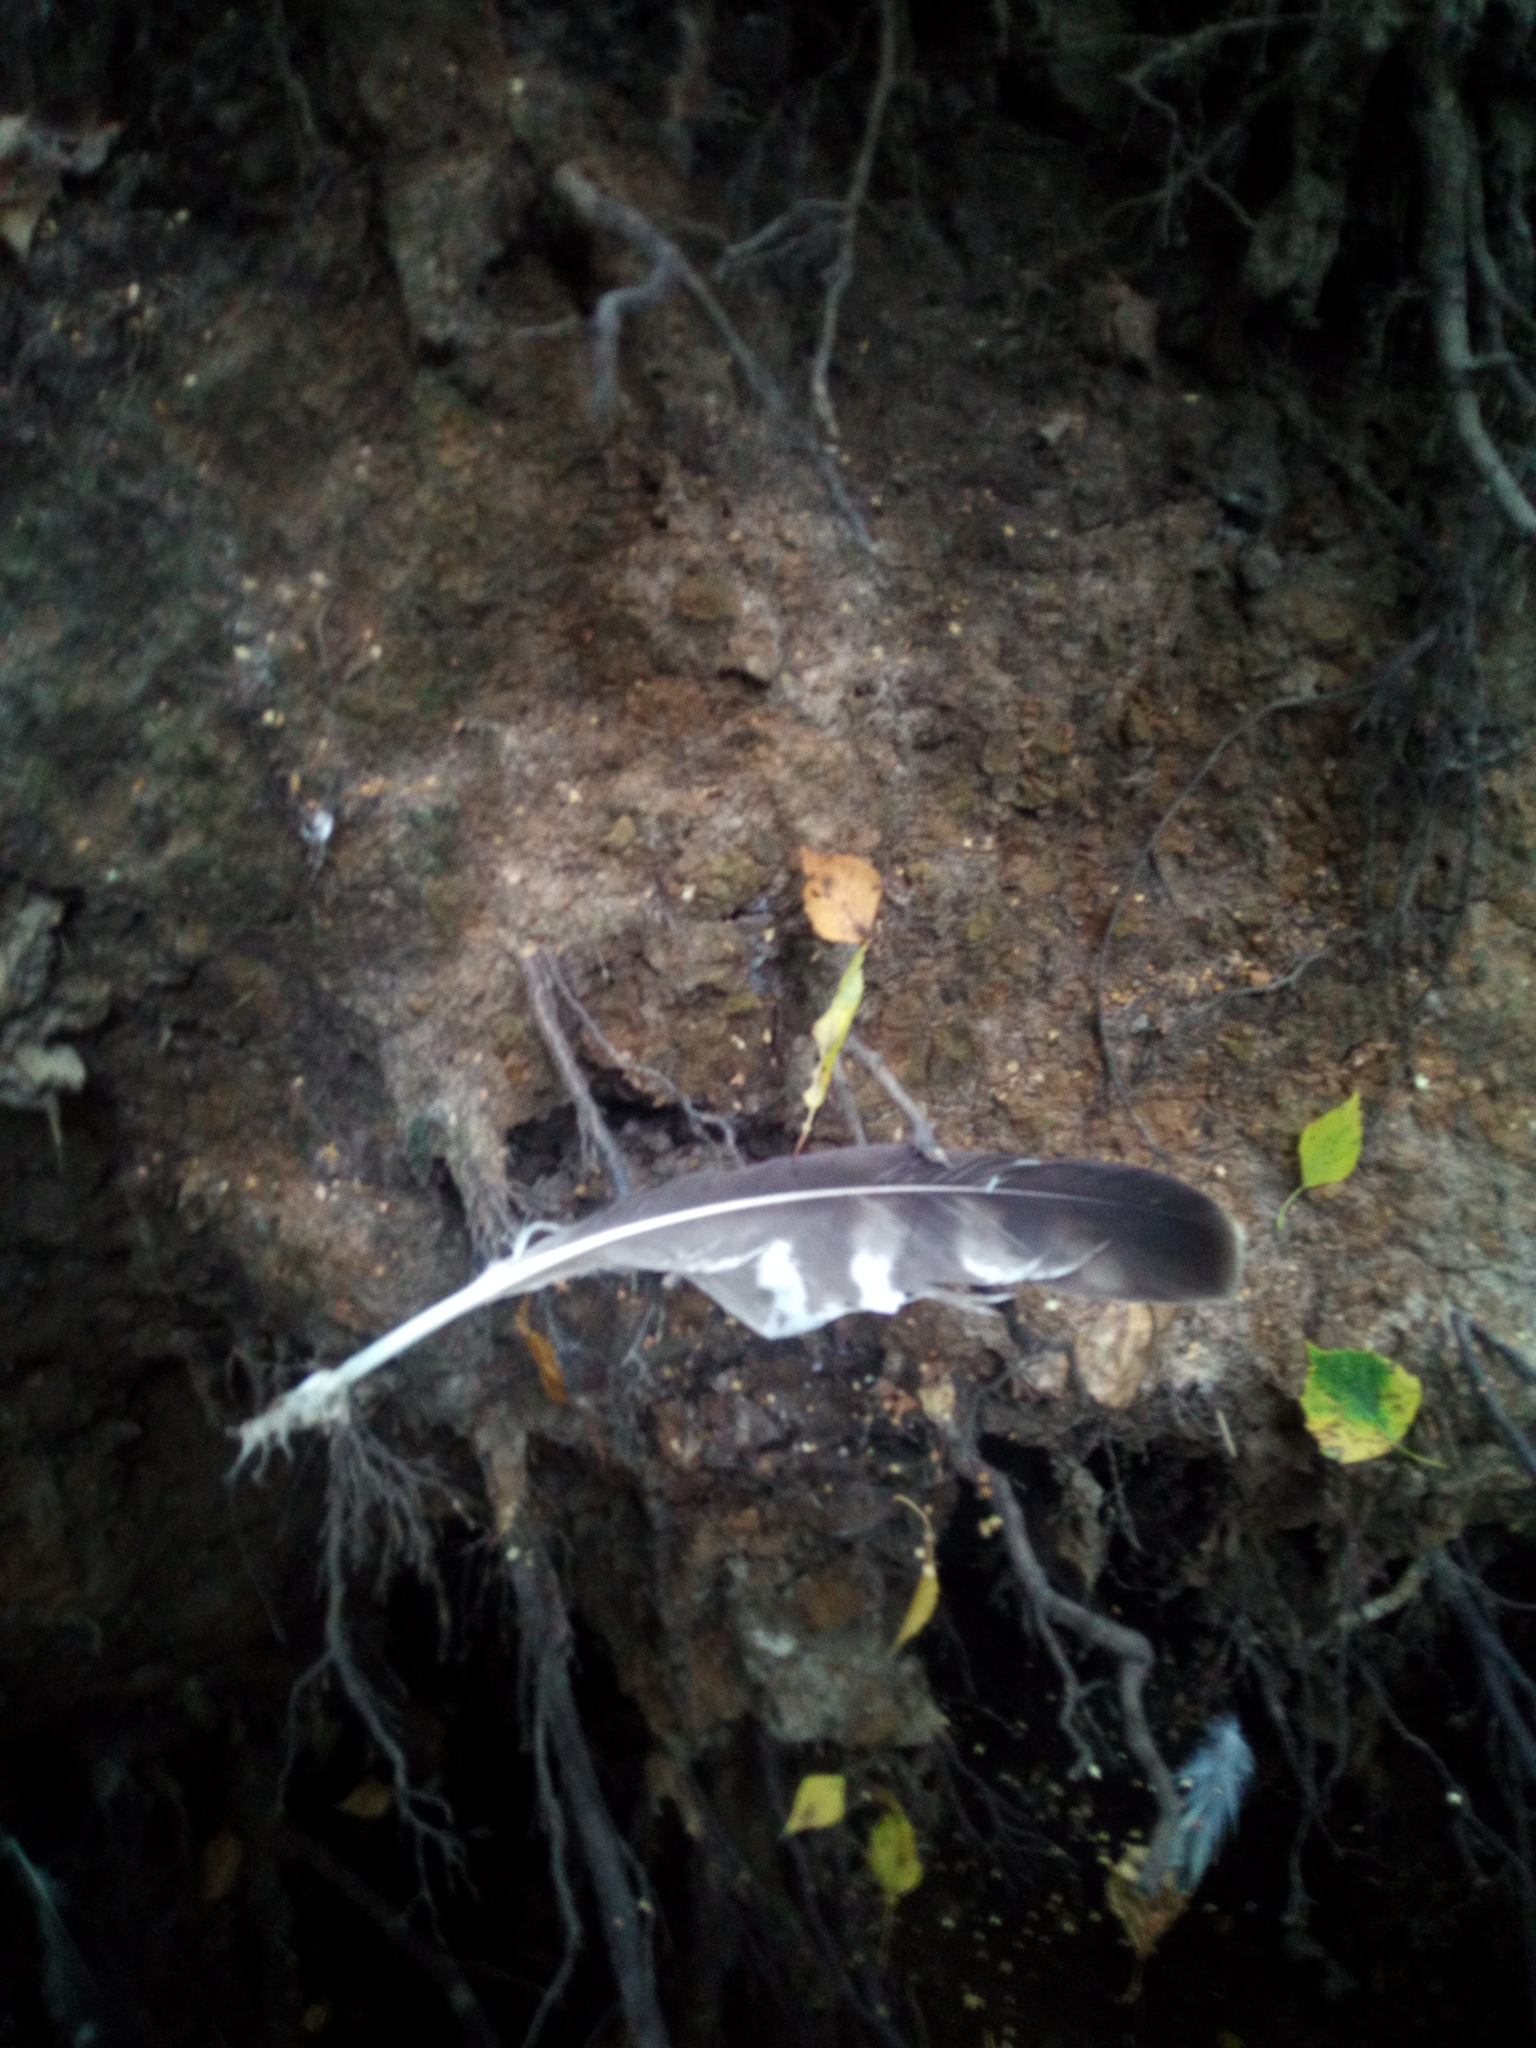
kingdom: Animalia
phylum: Chordata
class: Aves
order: Accipitriformes
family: Accipitridae
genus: Buteo
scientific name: Buteo buteo
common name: Common buzzard
